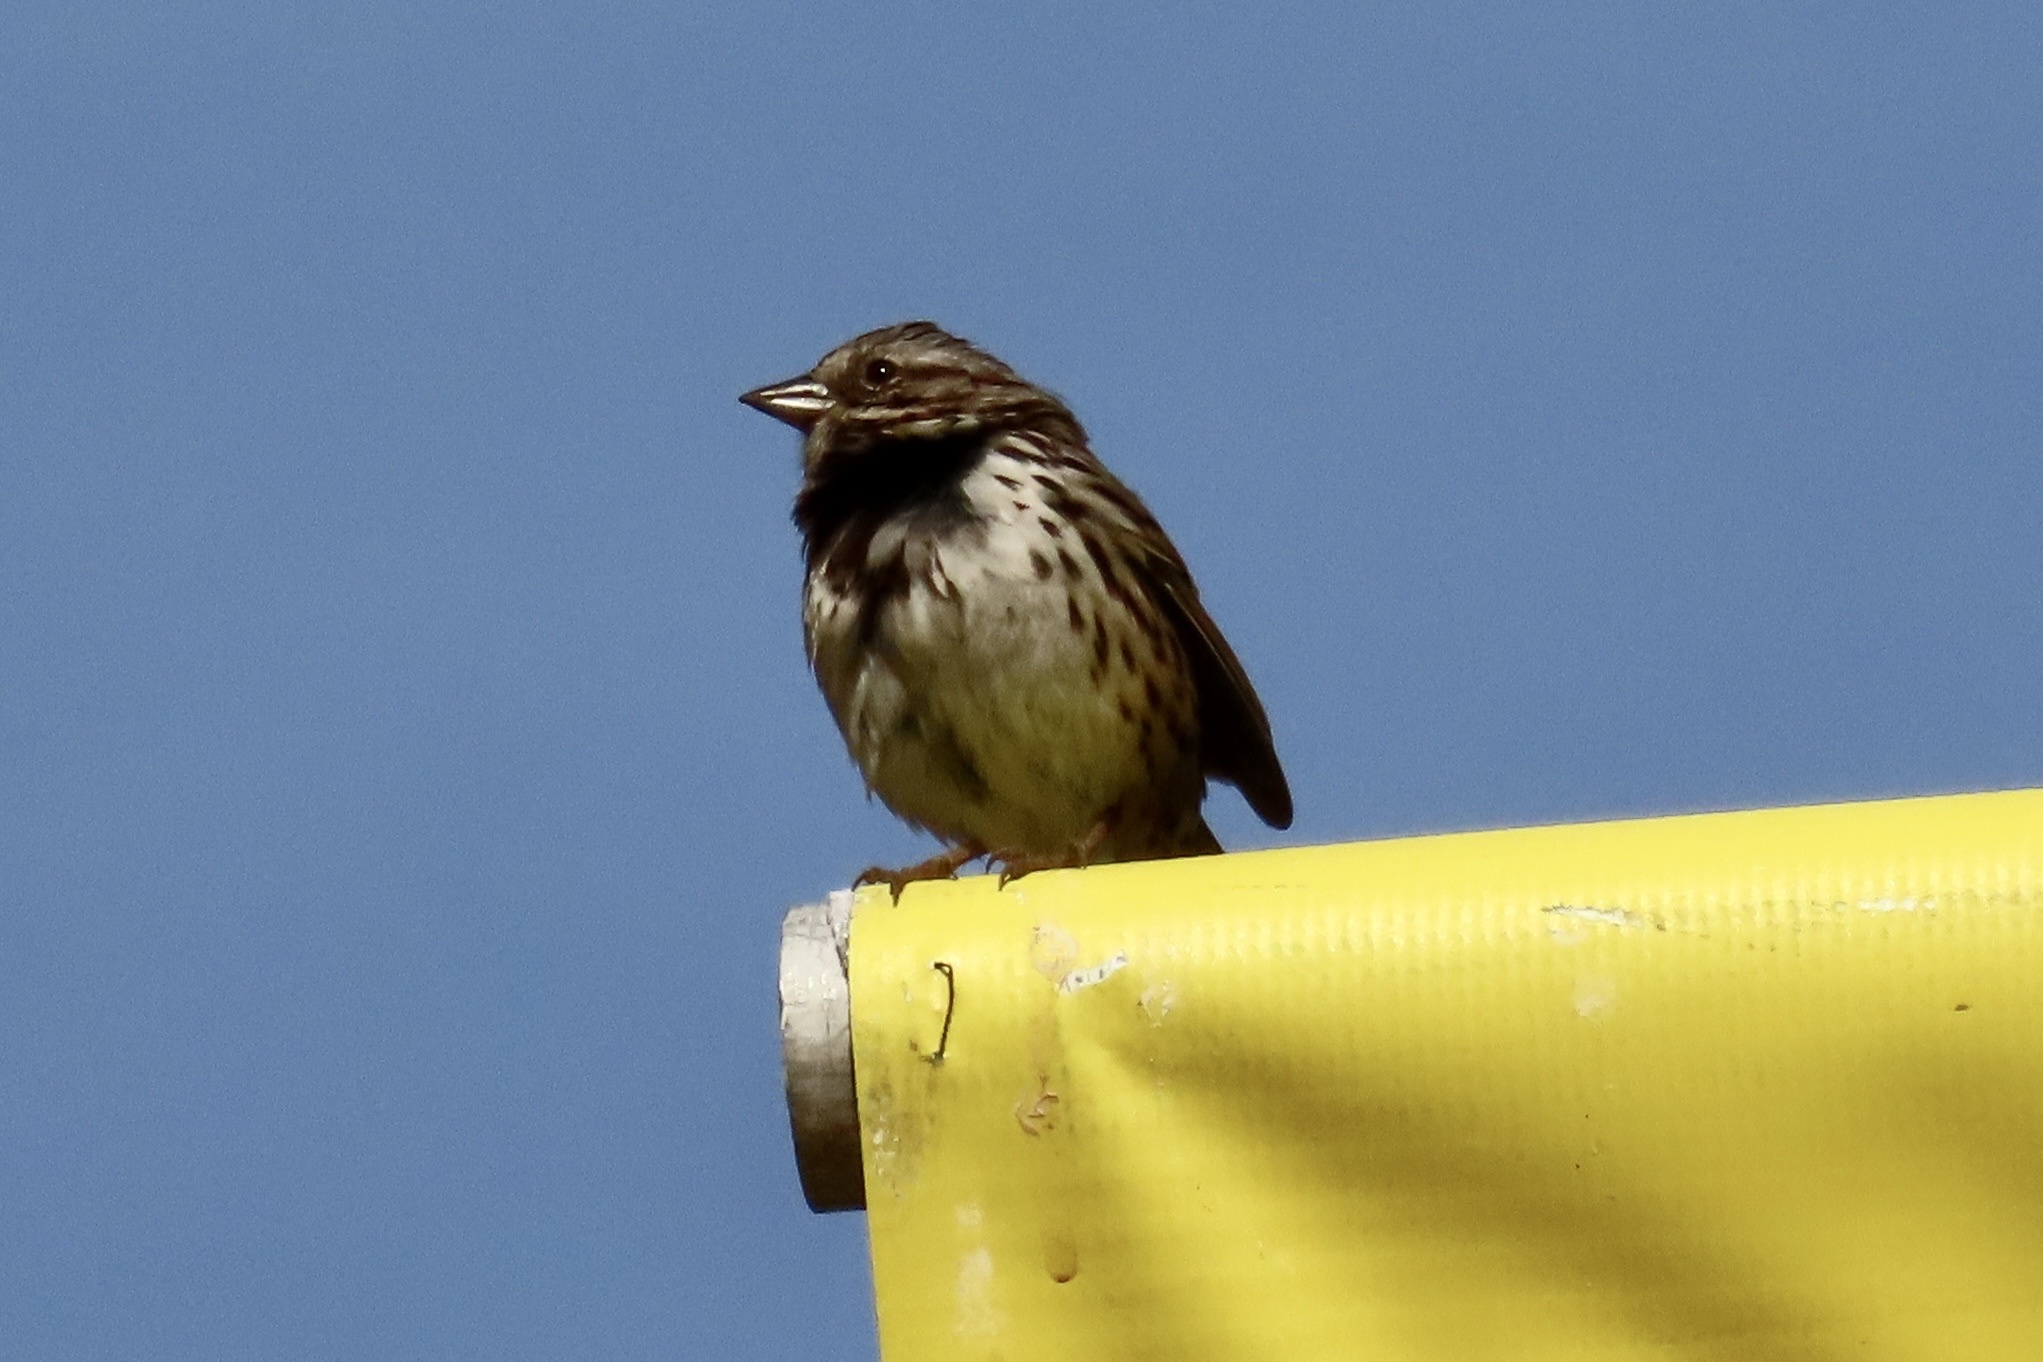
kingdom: Animalia
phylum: Chordata
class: Aves
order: Passeriformes
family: Passerellidae
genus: Melospiza
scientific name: Melospiza melodia
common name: Song sparrow
